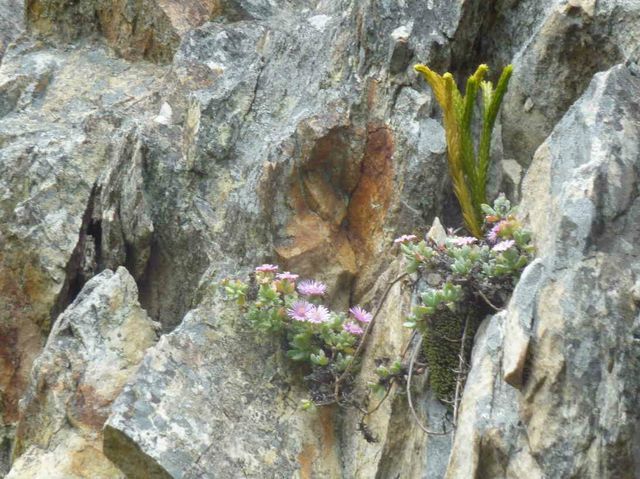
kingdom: Plantae
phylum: Tracheophyta
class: Lycopodiopsida
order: Lycopodiales
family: Lycopodiaceae
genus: Phlegmariurus
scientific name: Phlegmariurus gnidioides
